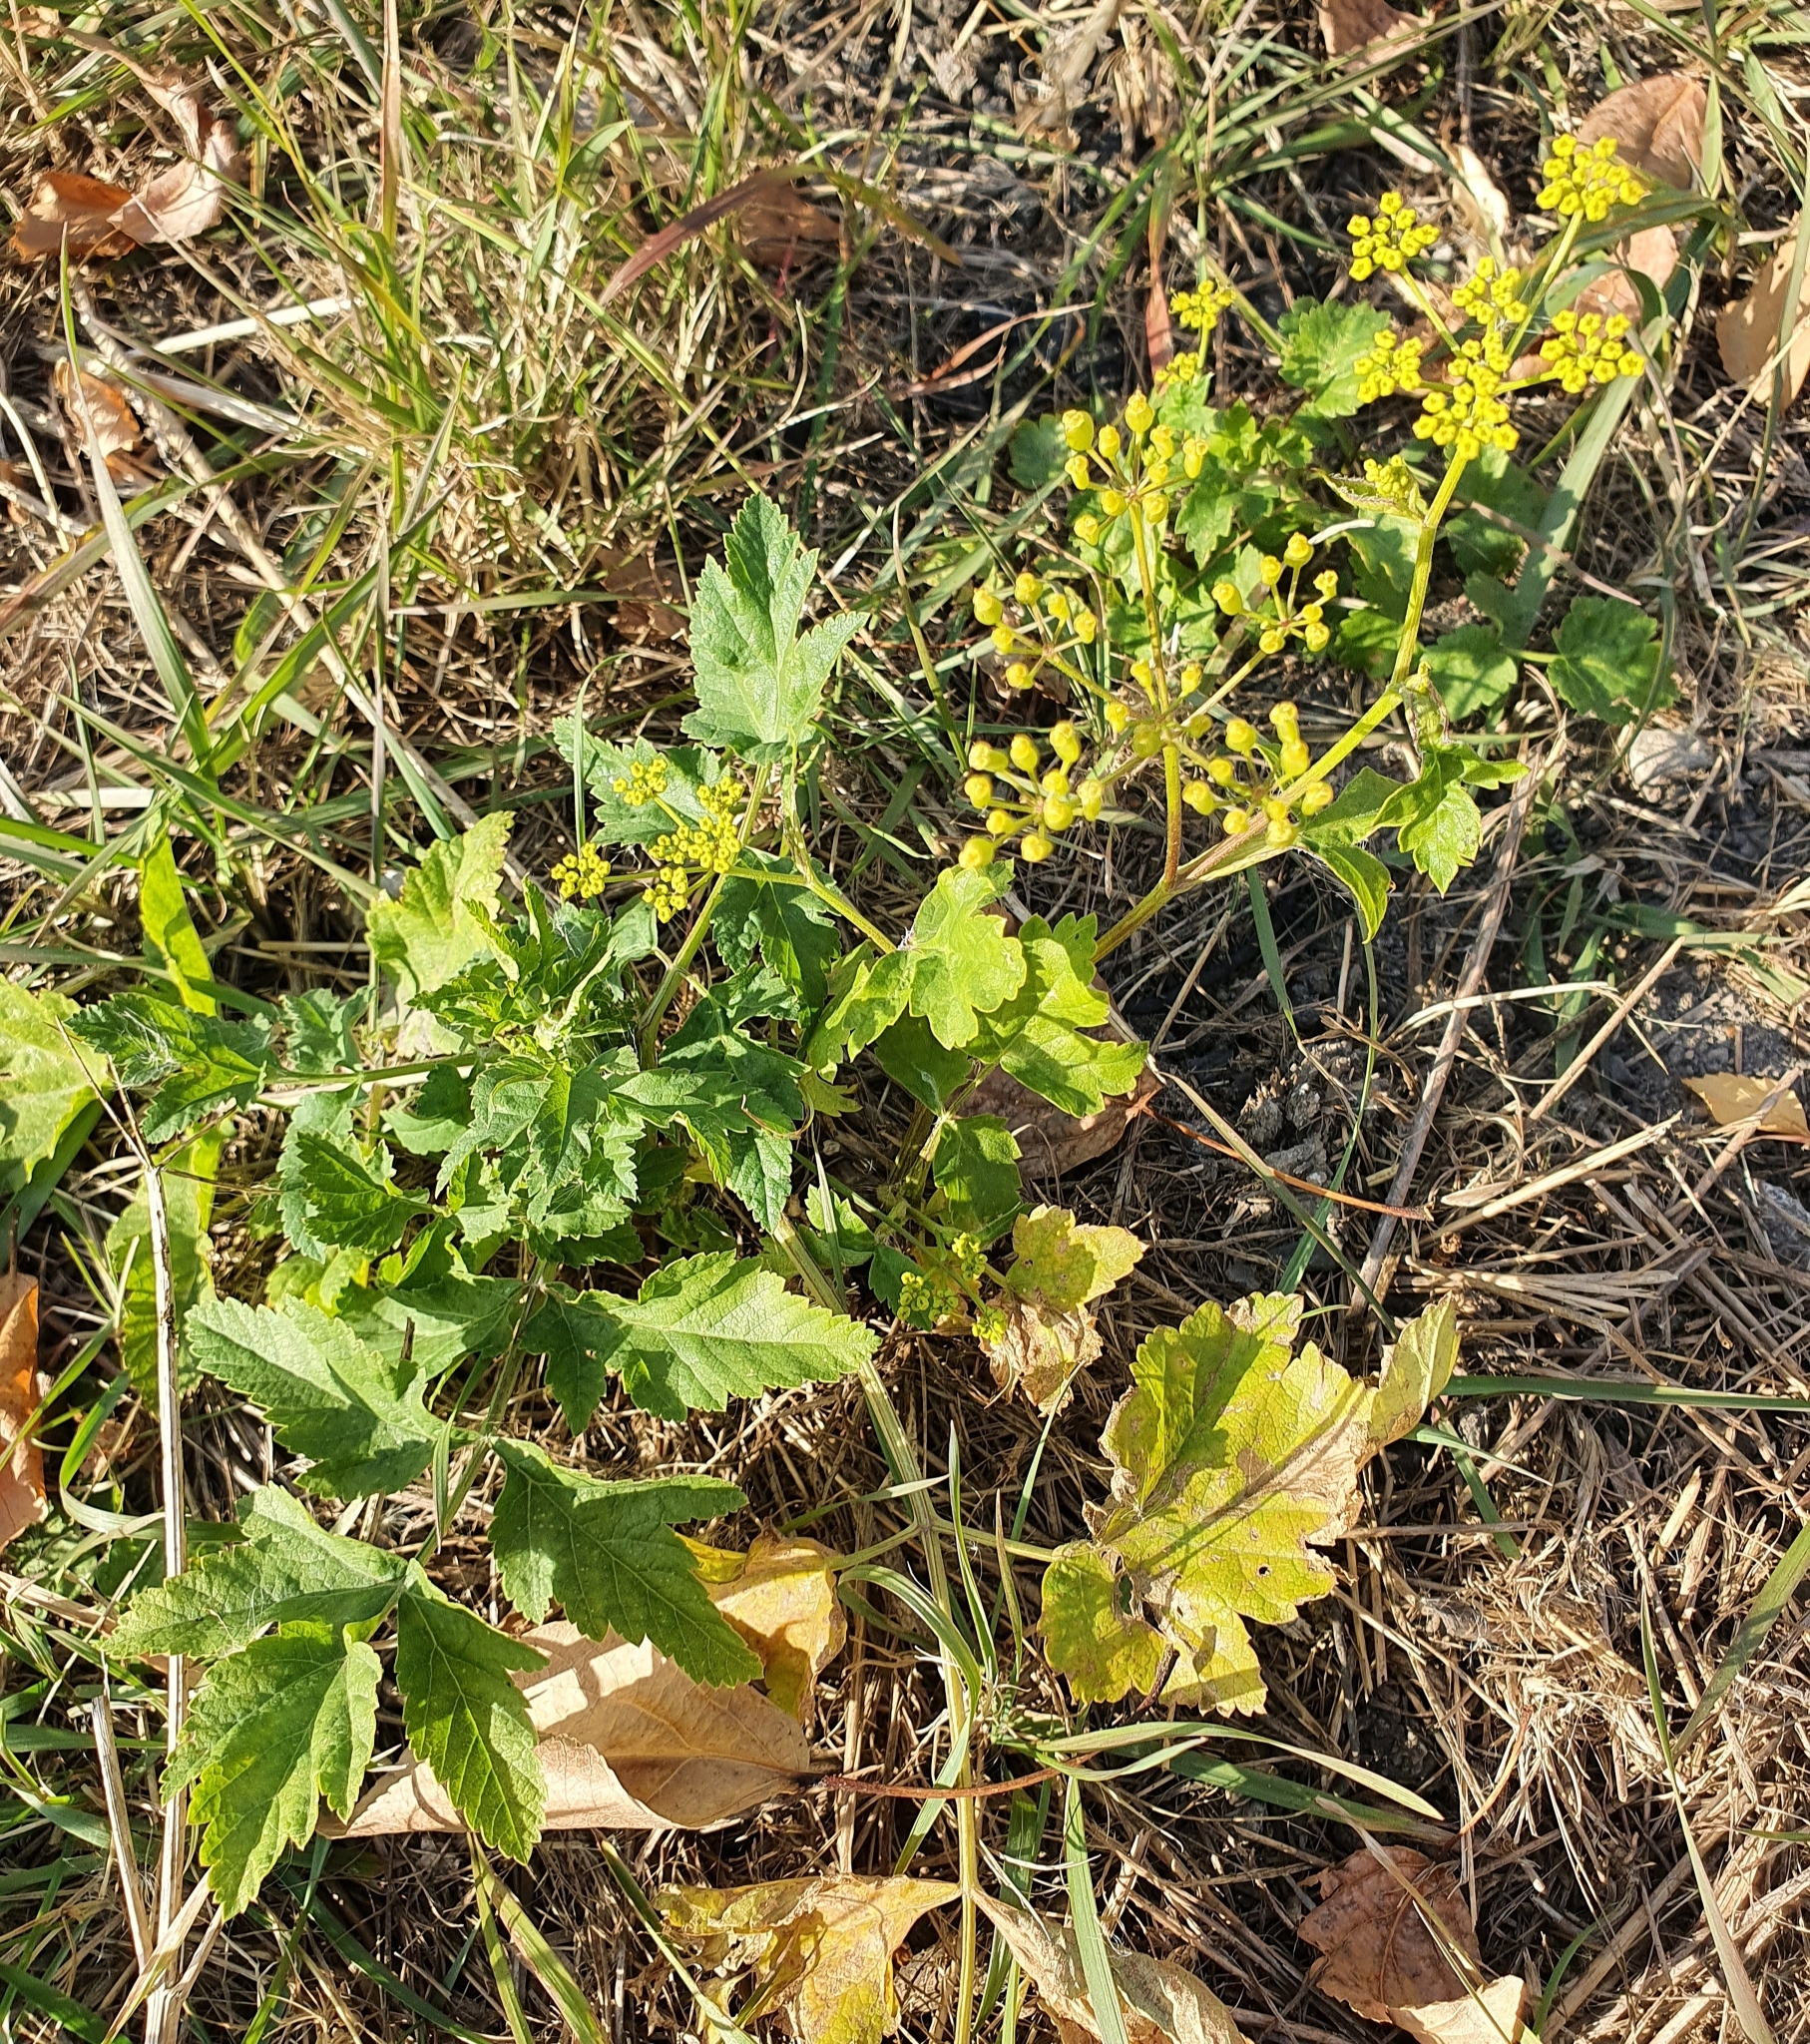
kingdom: Plantae
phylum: Tracheophyta
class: Magnoliopsida
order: Apiales
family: Apiaceae
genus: Pastinaca
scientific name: Pastinaca sativa
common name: Wild parsnip
